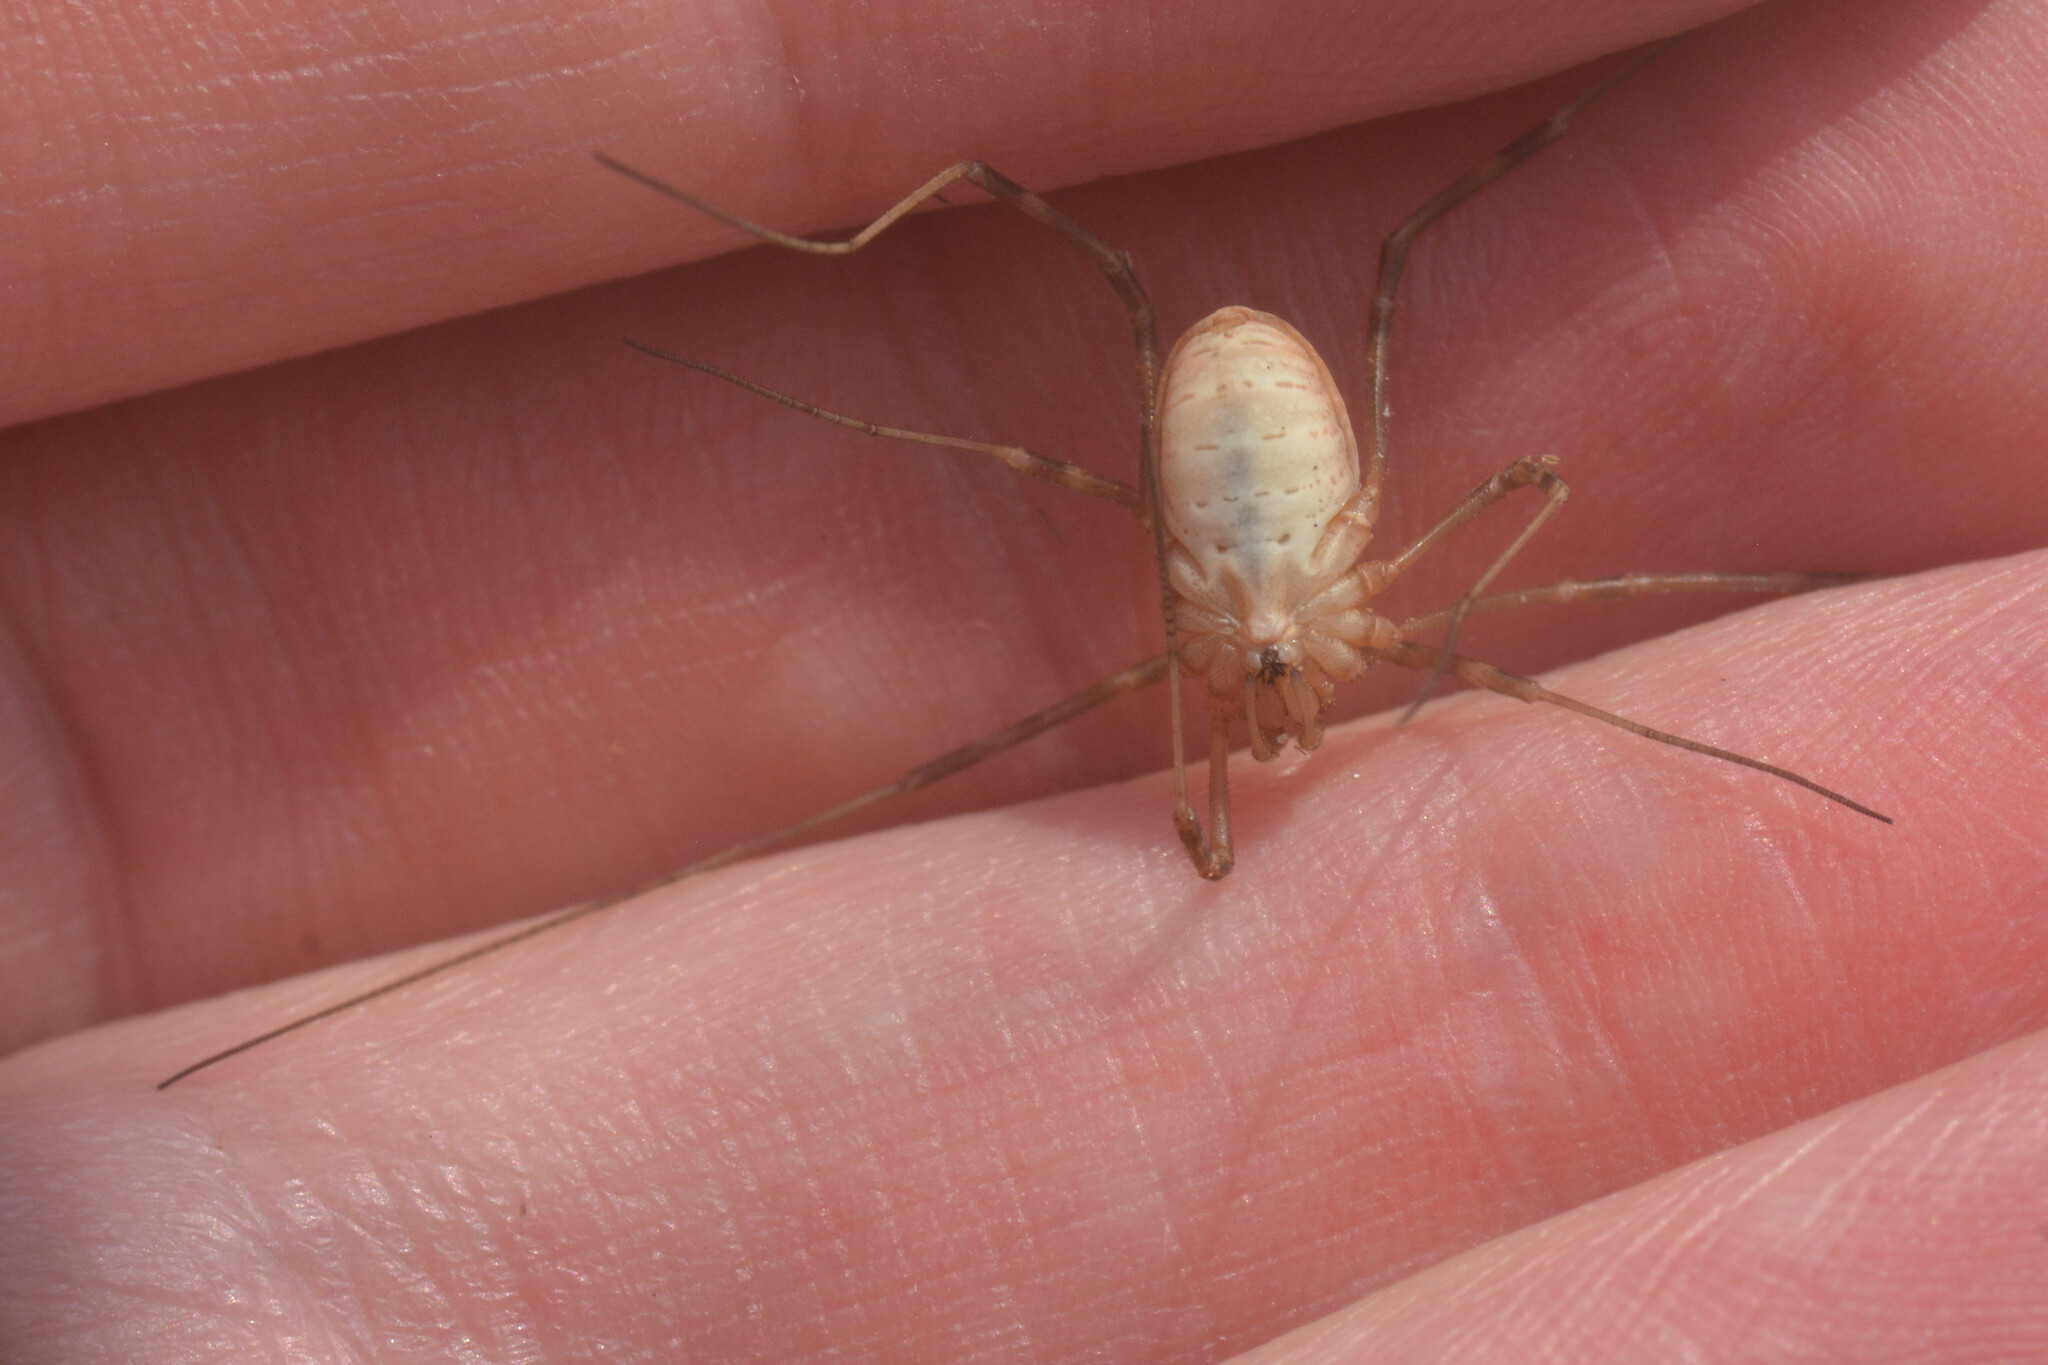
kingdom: Animalia
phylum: Arthropoda
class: Arachnida
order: Opiliones
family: Phalangiidae
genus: Mitopus
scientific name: Mitopus morio
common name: Saddleback harvestman
